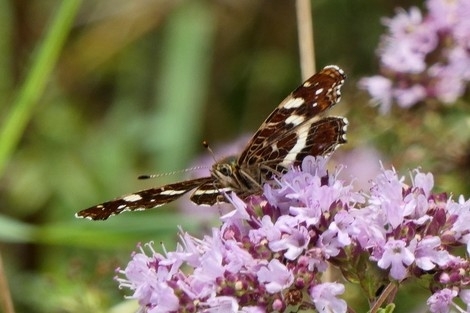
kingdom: Animalia
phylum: Arthropoda
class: Insecta
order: Lepidoptera
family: Nymphalidae
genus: Araschnia
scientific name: Araschnia levana
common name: Map butterfly
